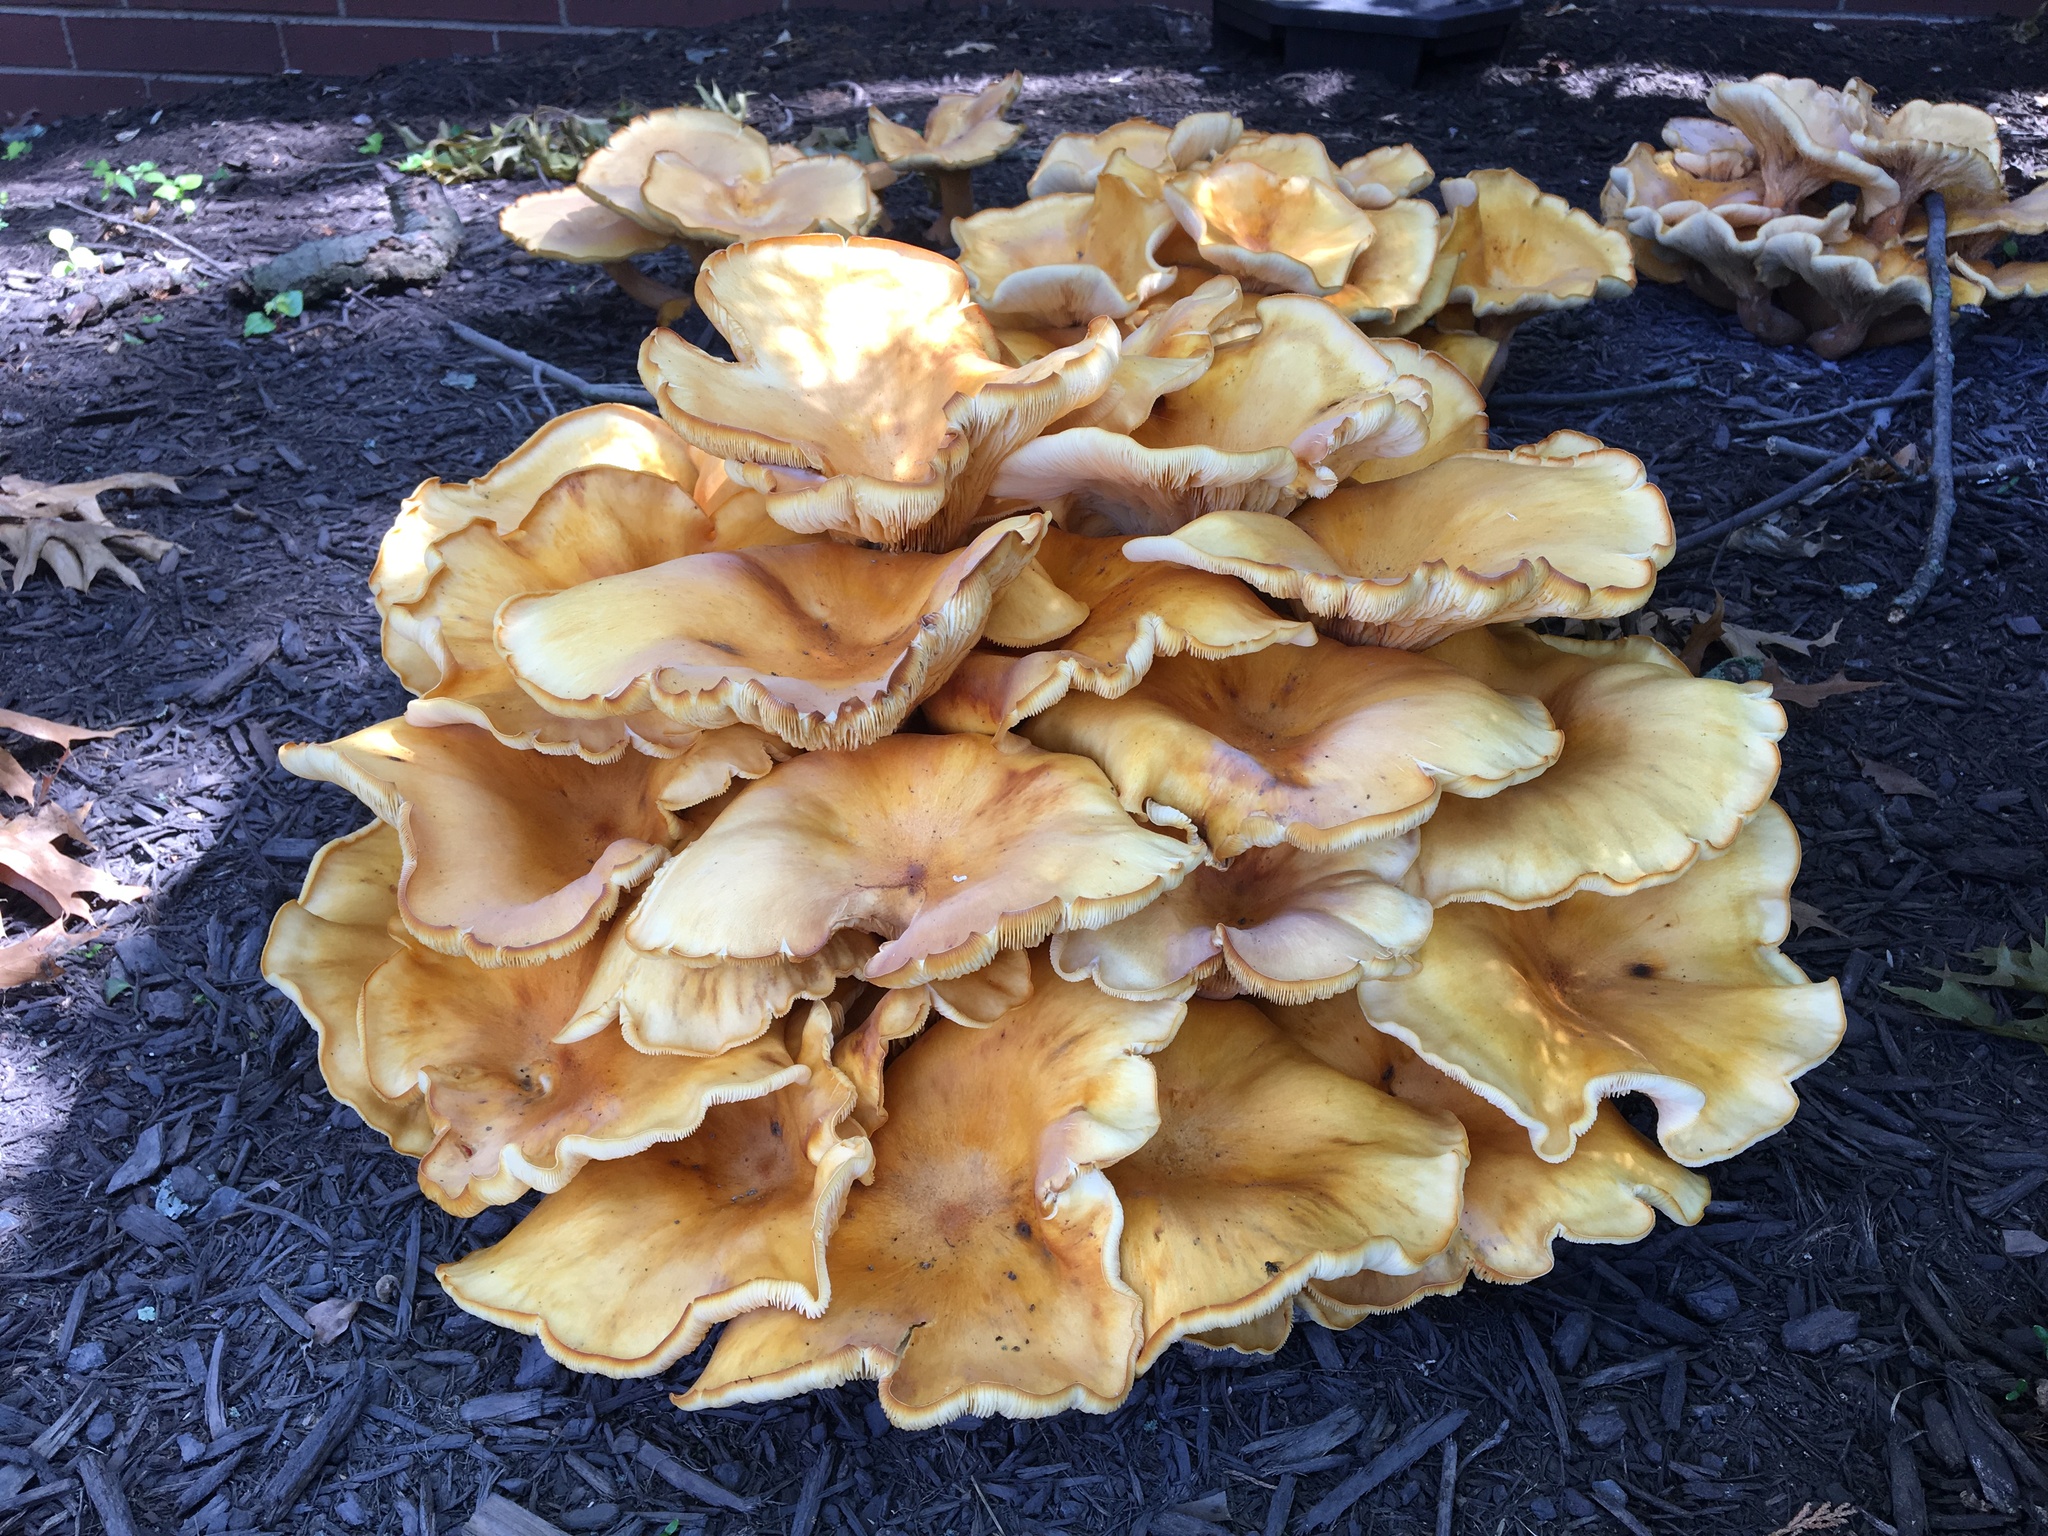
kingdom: Fungi
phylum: Basidiomycota
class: Agaricomycetes
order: Agaricales
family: Omphalotaceae
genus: Omphalotus
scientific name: Omphalotus illudens
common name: Jack o lantern
